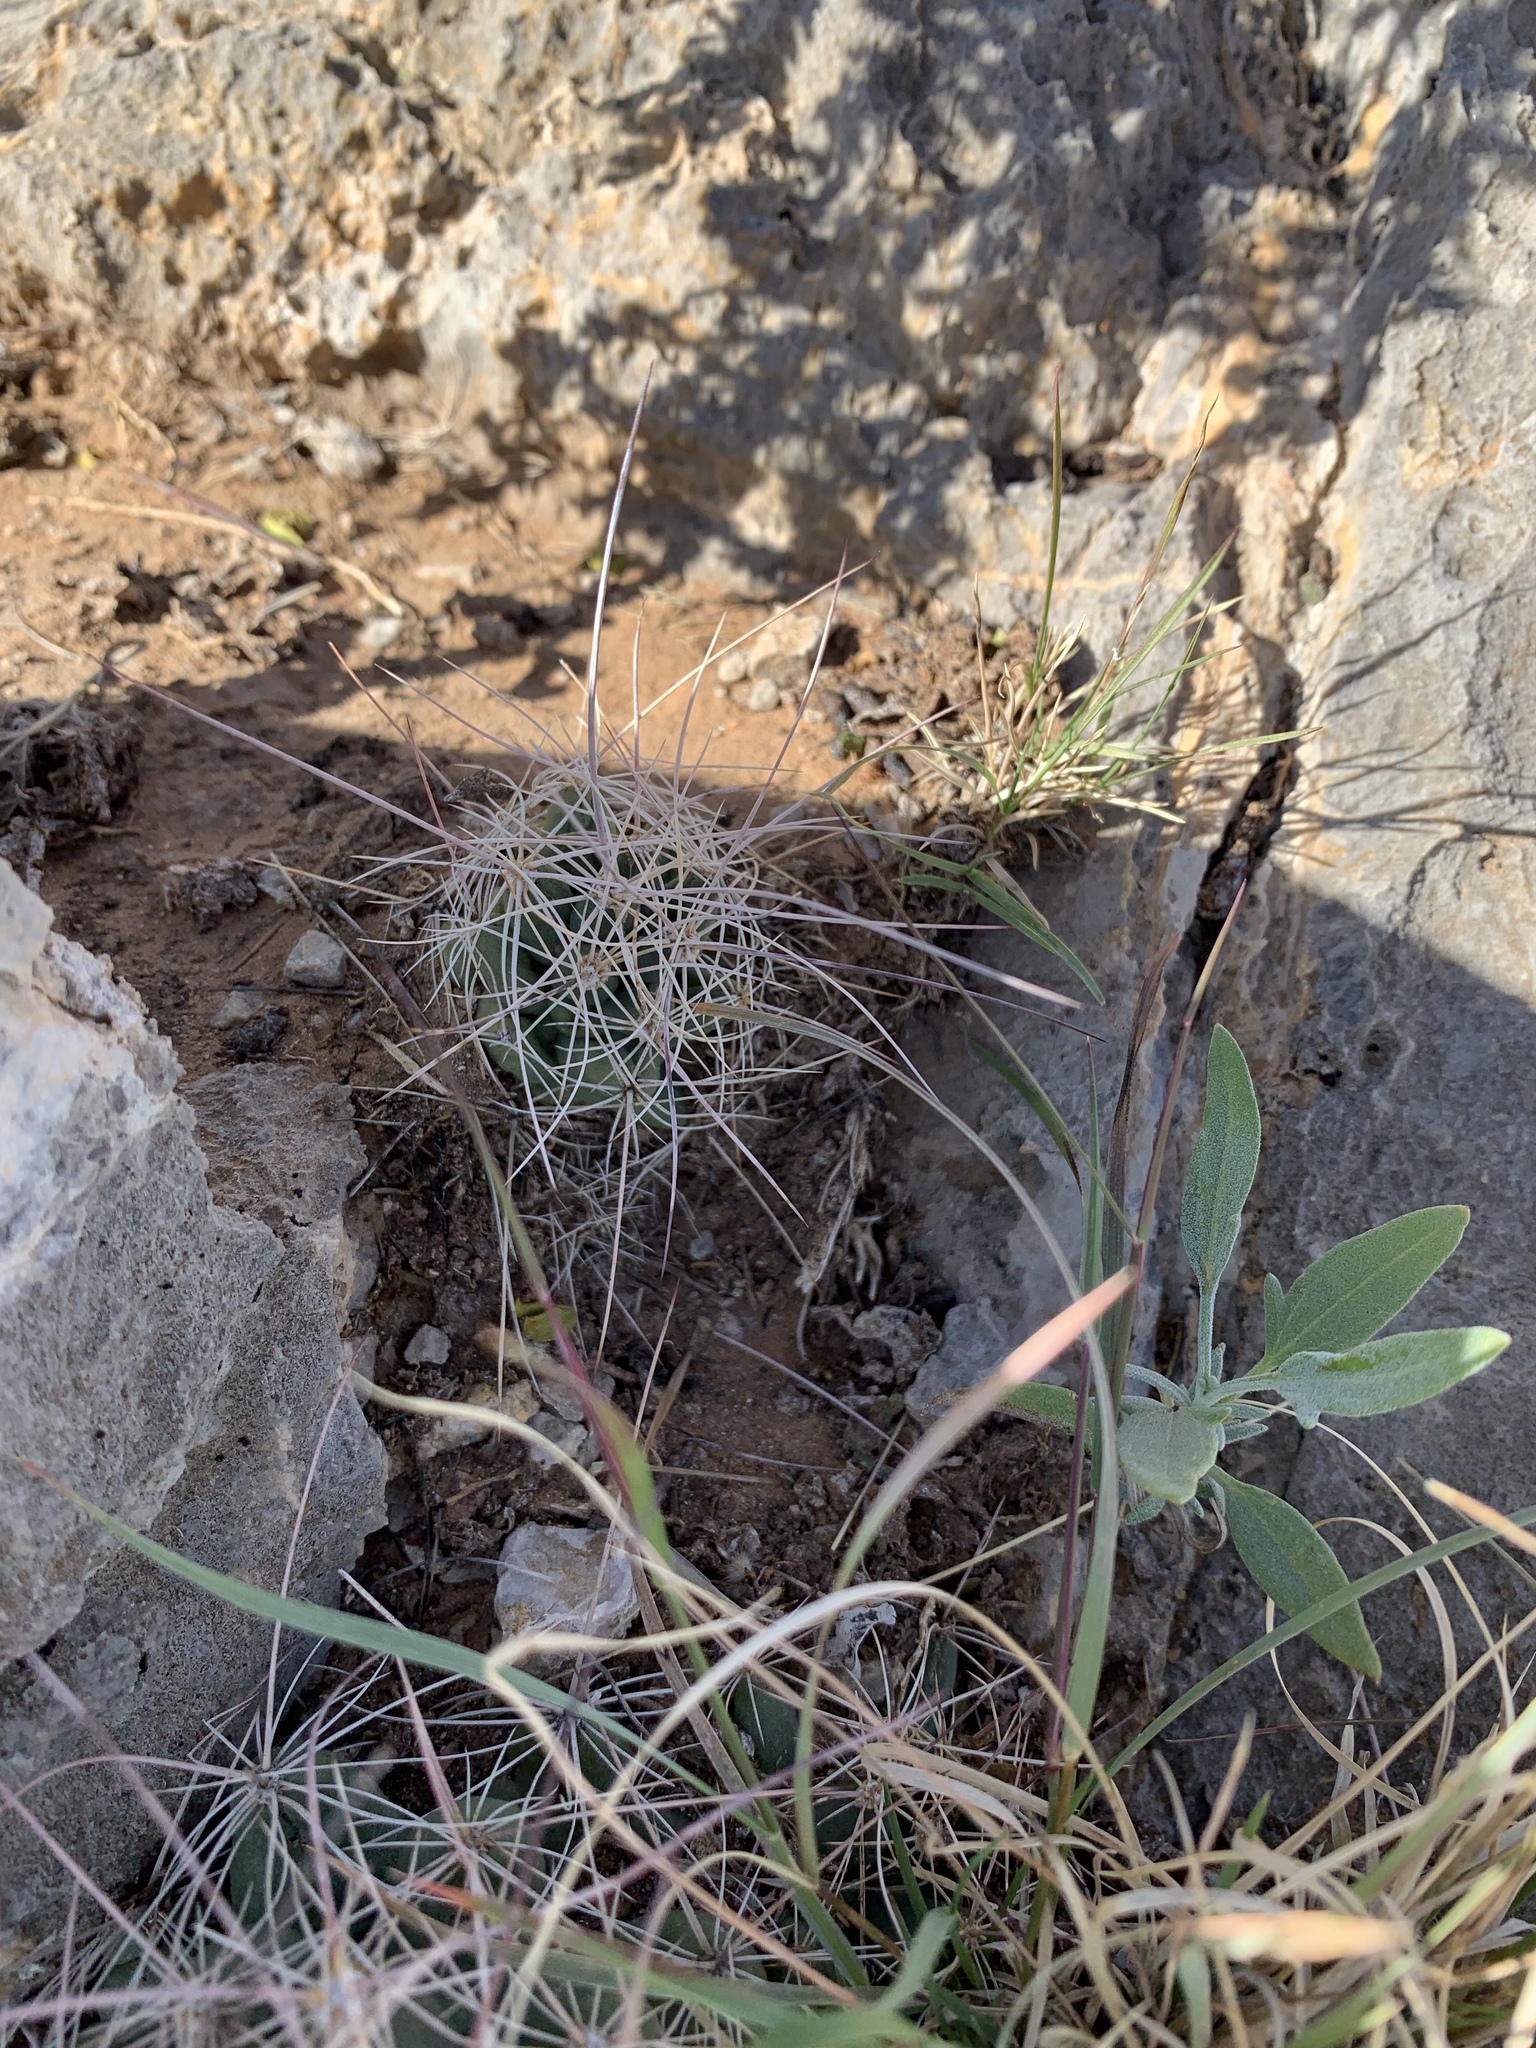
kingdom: Plantae
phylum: Tracheophyta
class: Magnoliopsida
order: Caryophyllales
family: Cactaceae
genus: Coryphantha
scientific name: Coryphantha macromeris
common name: Nipple beehive cactus
